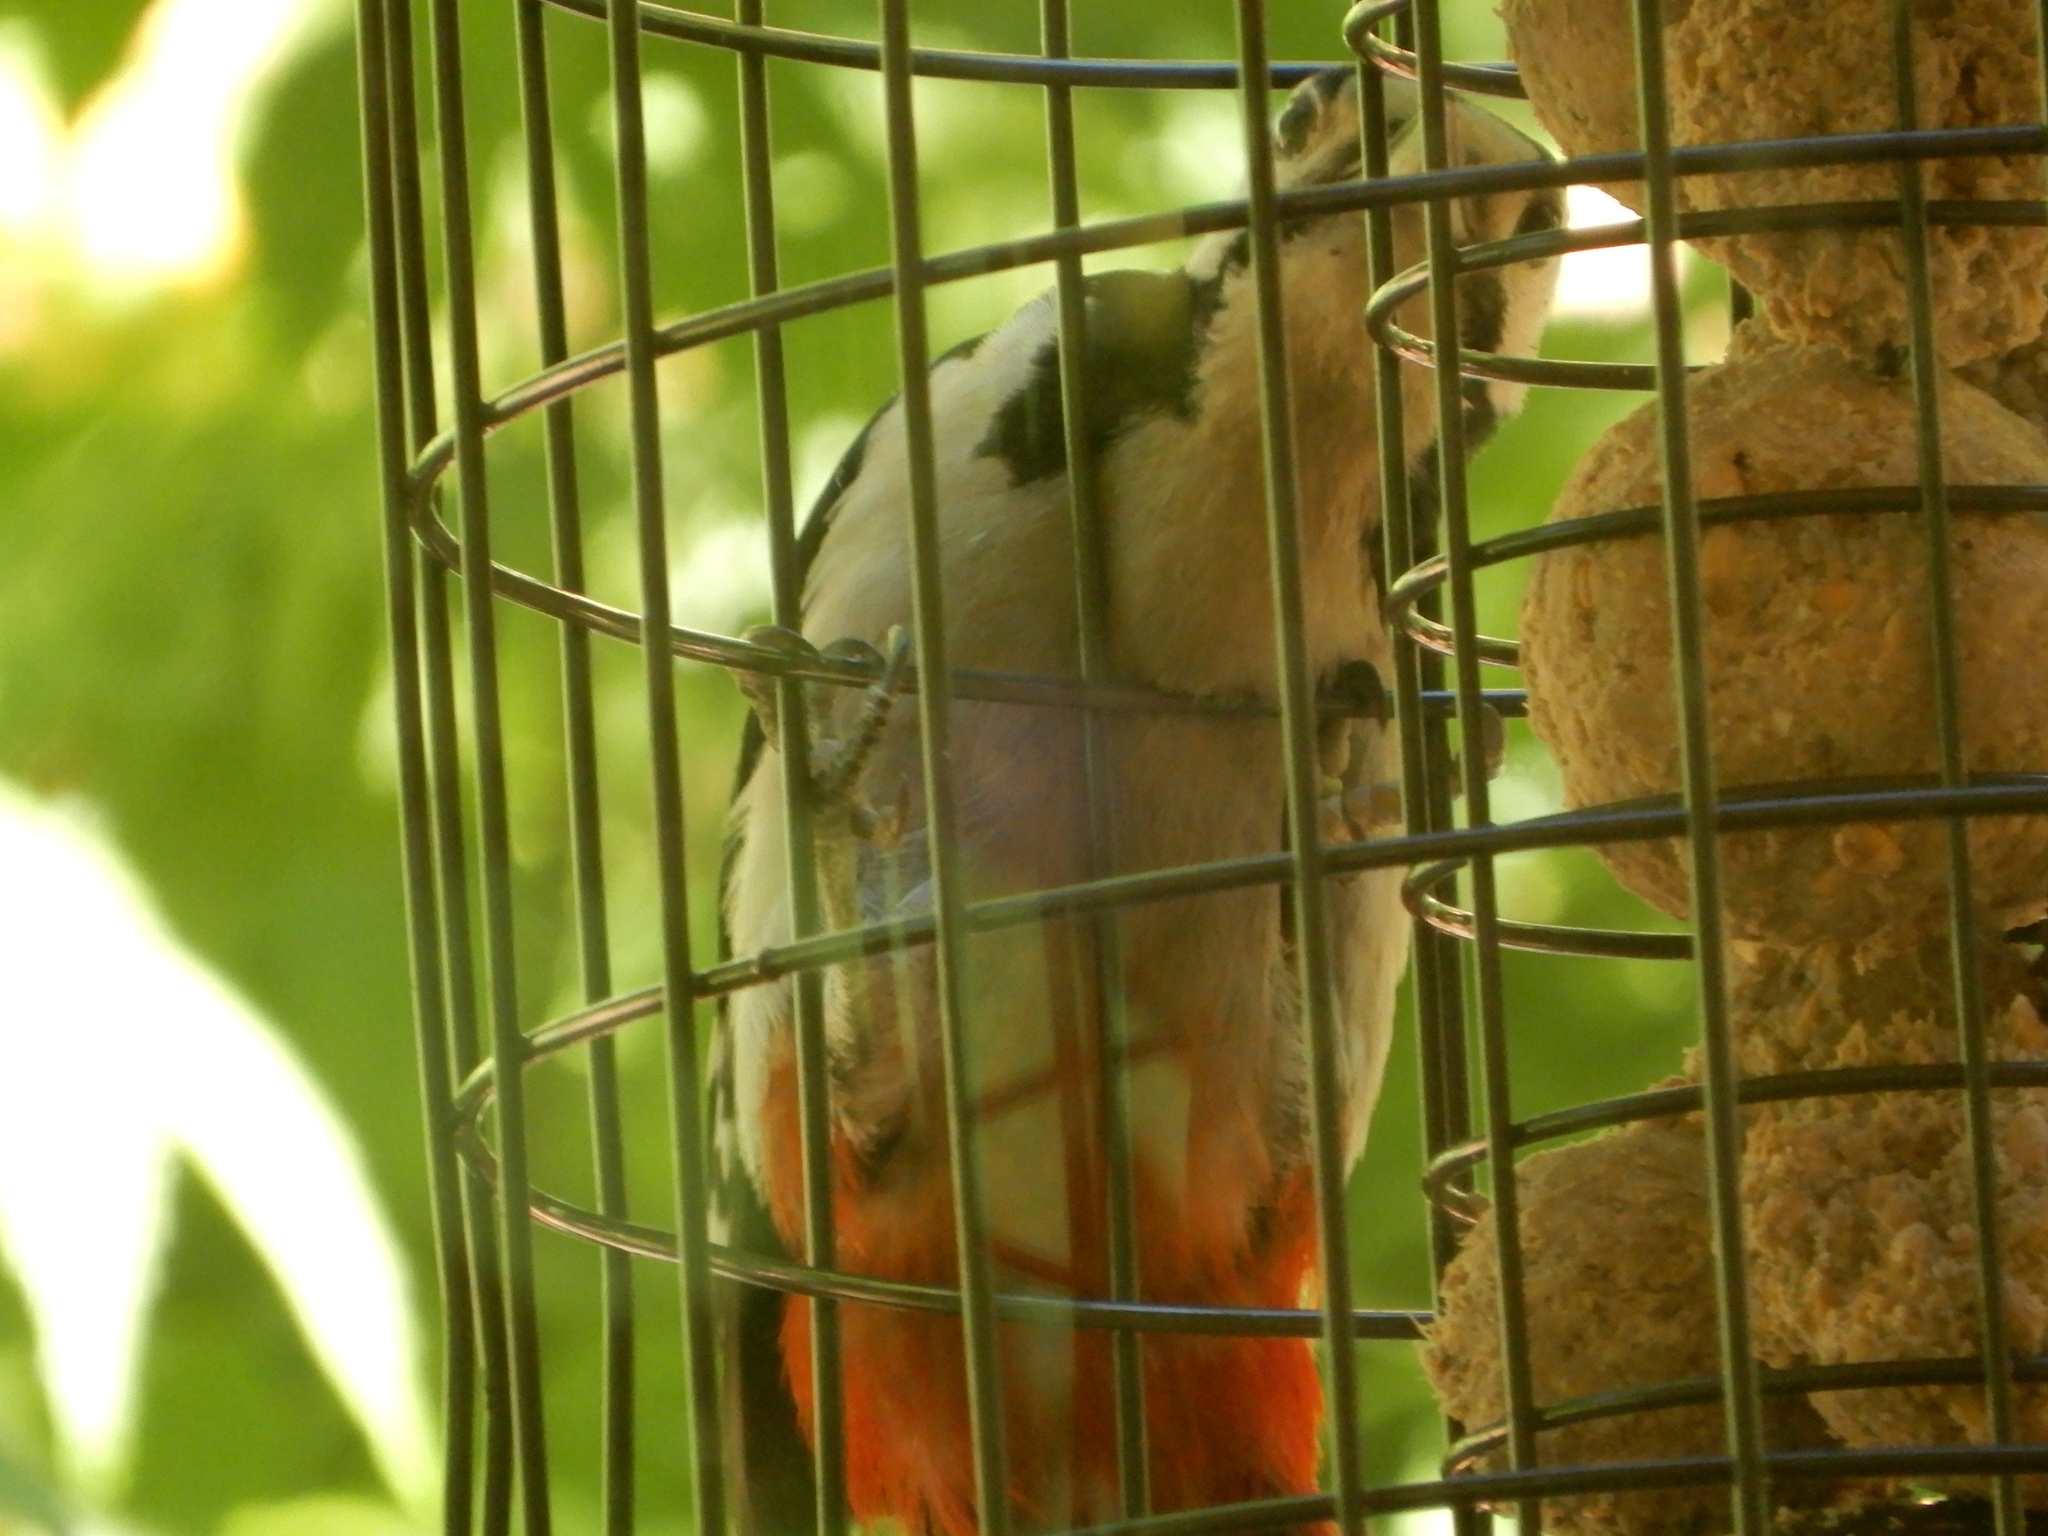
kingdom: Animalia
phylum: Chordata
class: Aves
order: Piciformes
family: Picidae
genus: Dendrocopos
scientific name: Dendrocopos major
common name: Great spotted woodpecker
